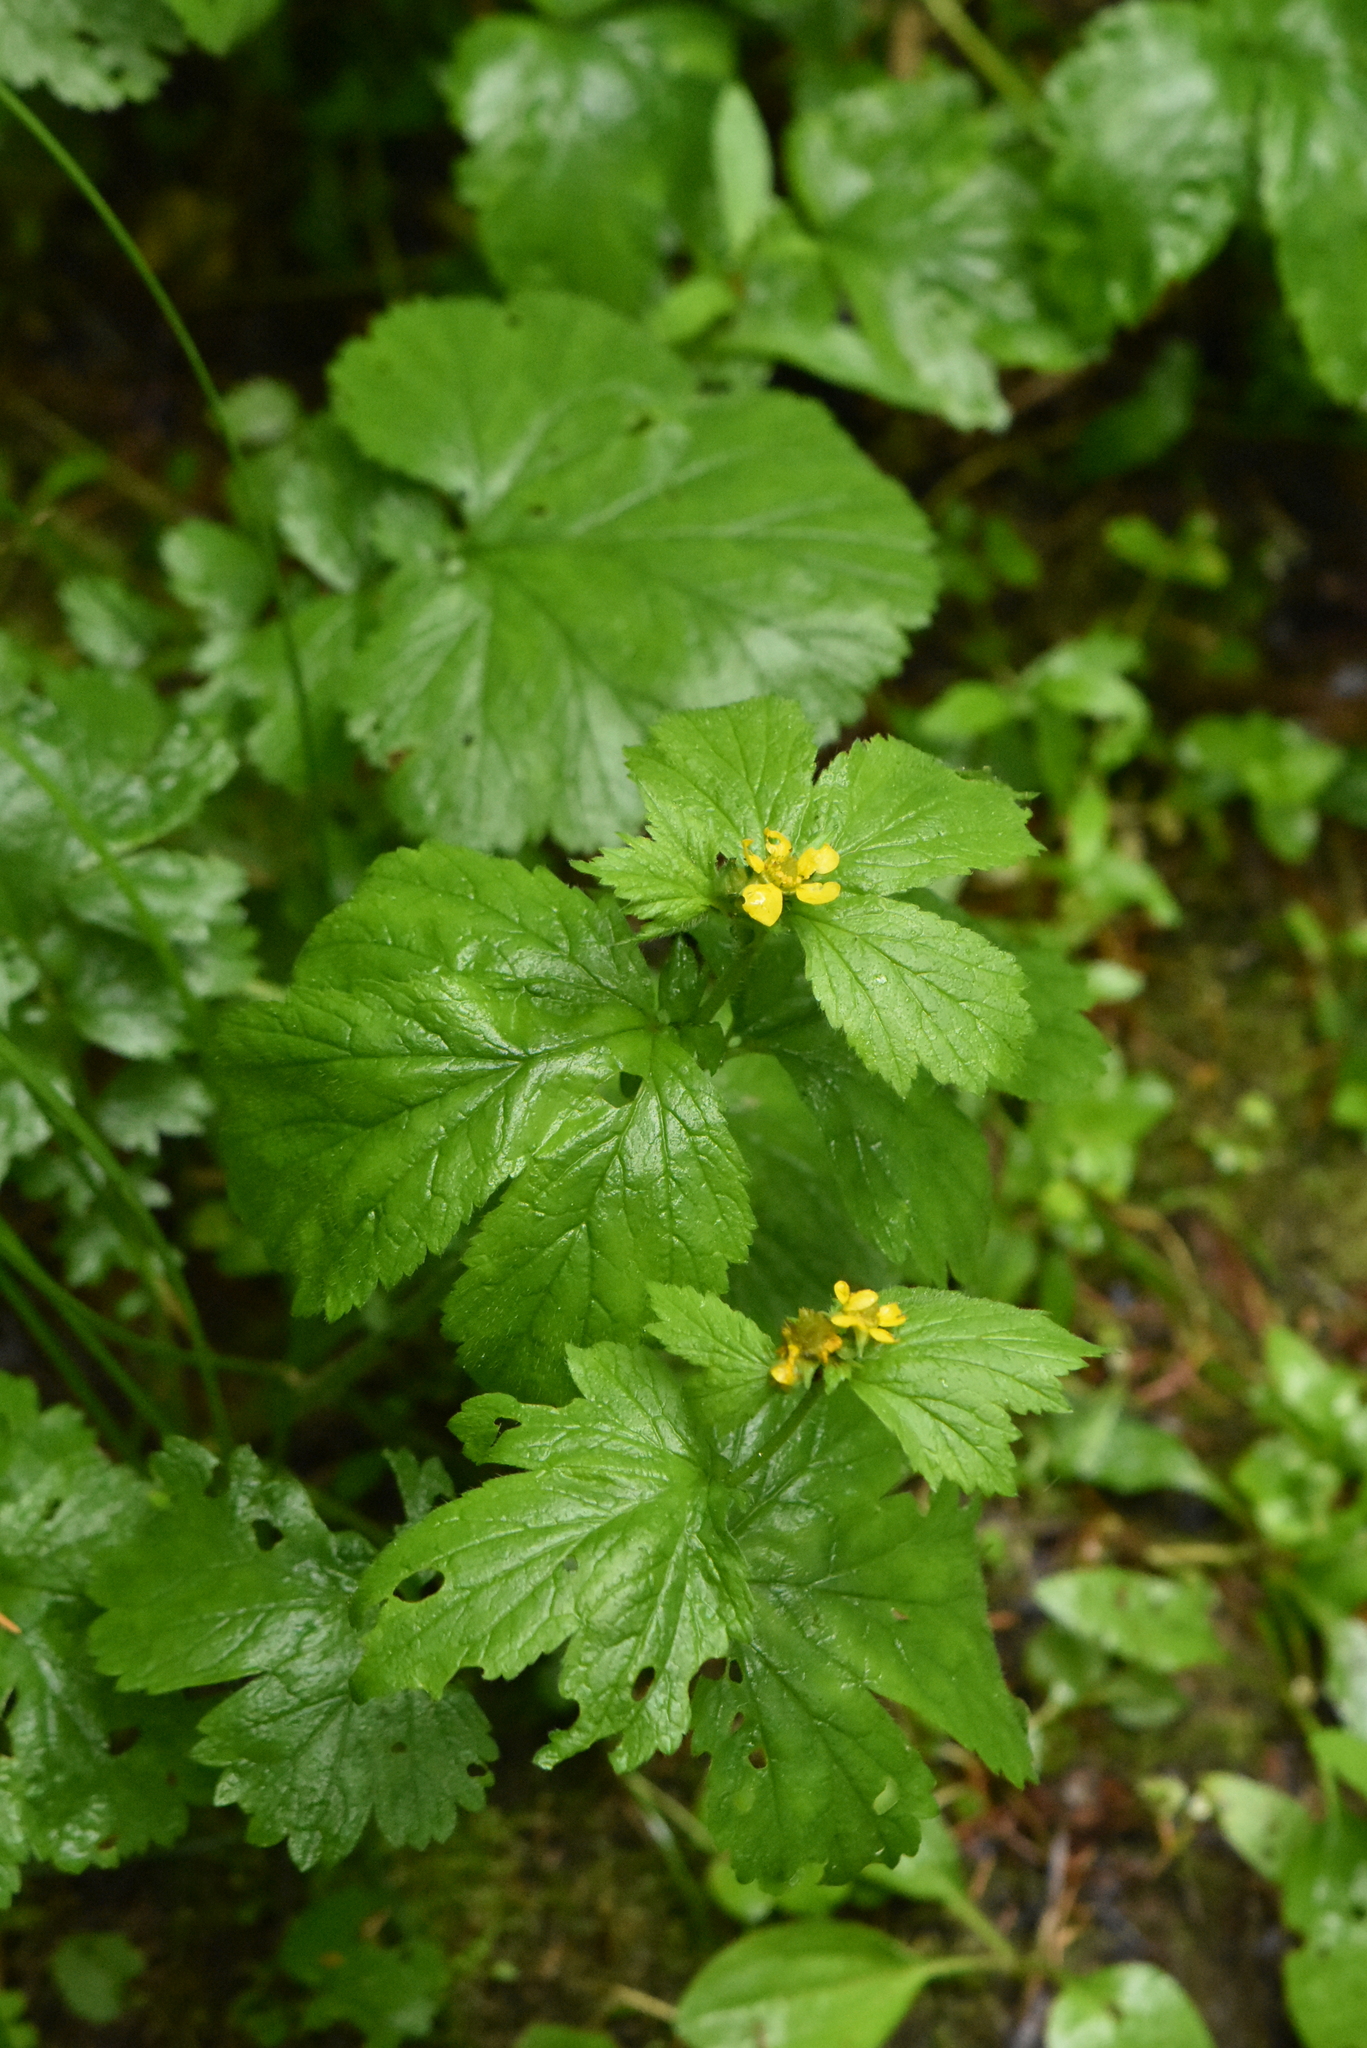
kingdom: Plantae
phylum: Tracheophyta
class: Magnoliopsida
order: Rosales
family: Rosaceae
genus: Geum
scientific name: Geum macrophyllum
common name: Large-leaved avens
